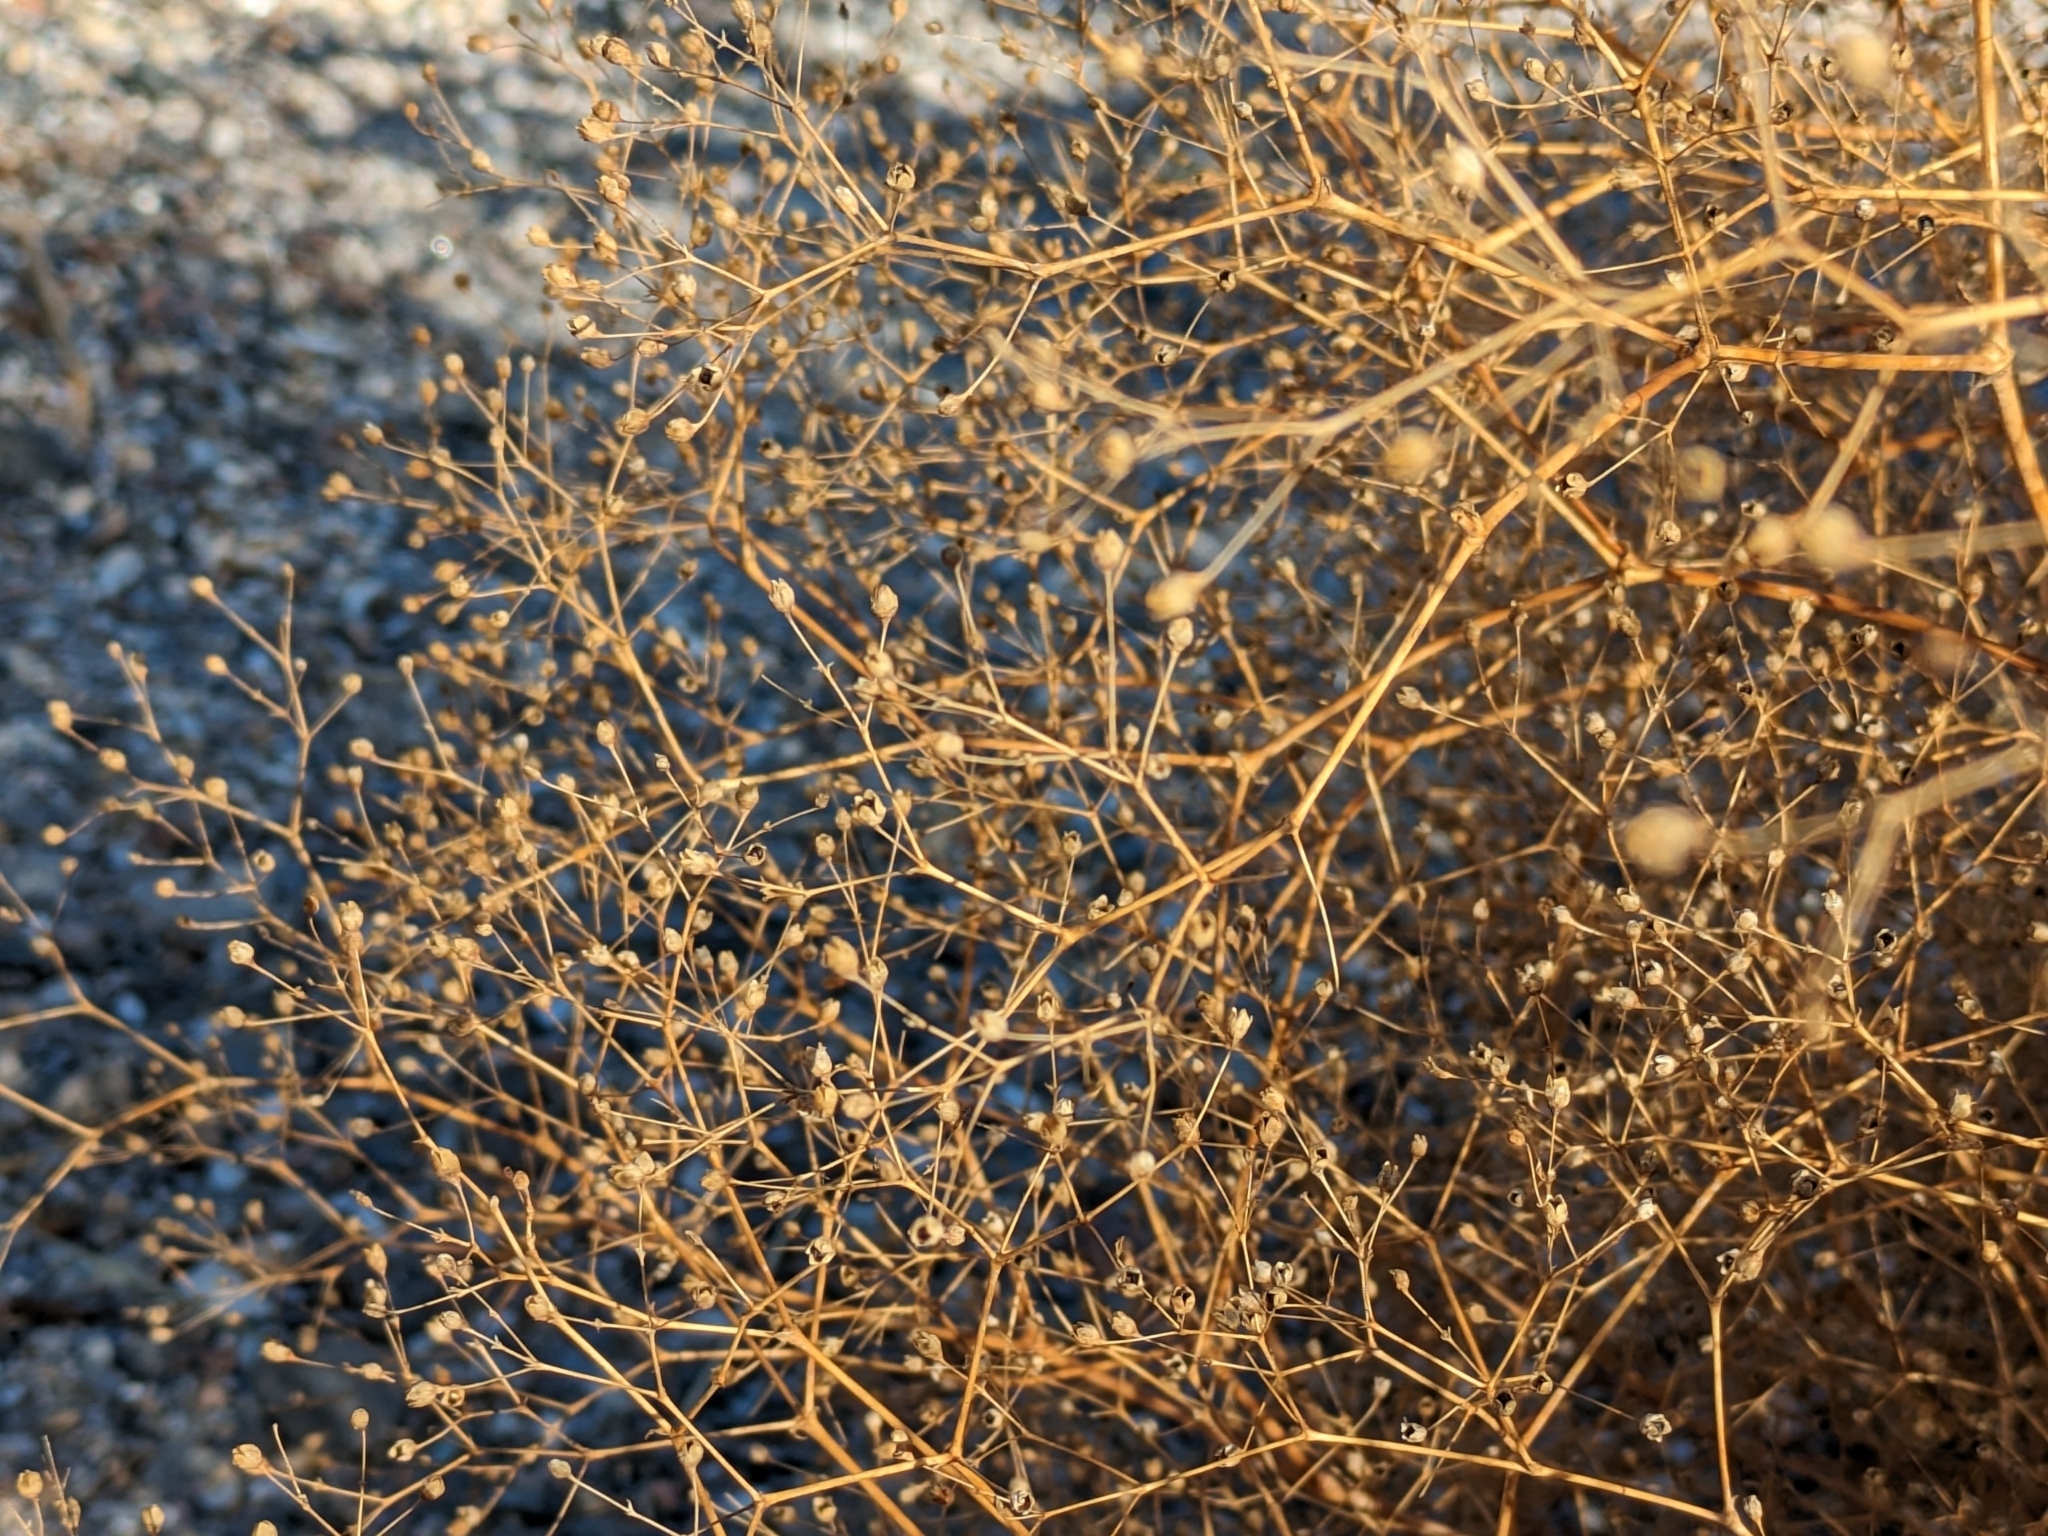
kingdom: Plantae
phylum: Tracheophyta
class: Magnoliopsida
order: Caryophyllales
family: Caryophyllaceae
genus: Gypsophila
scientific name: Gypsophila perfoliata
